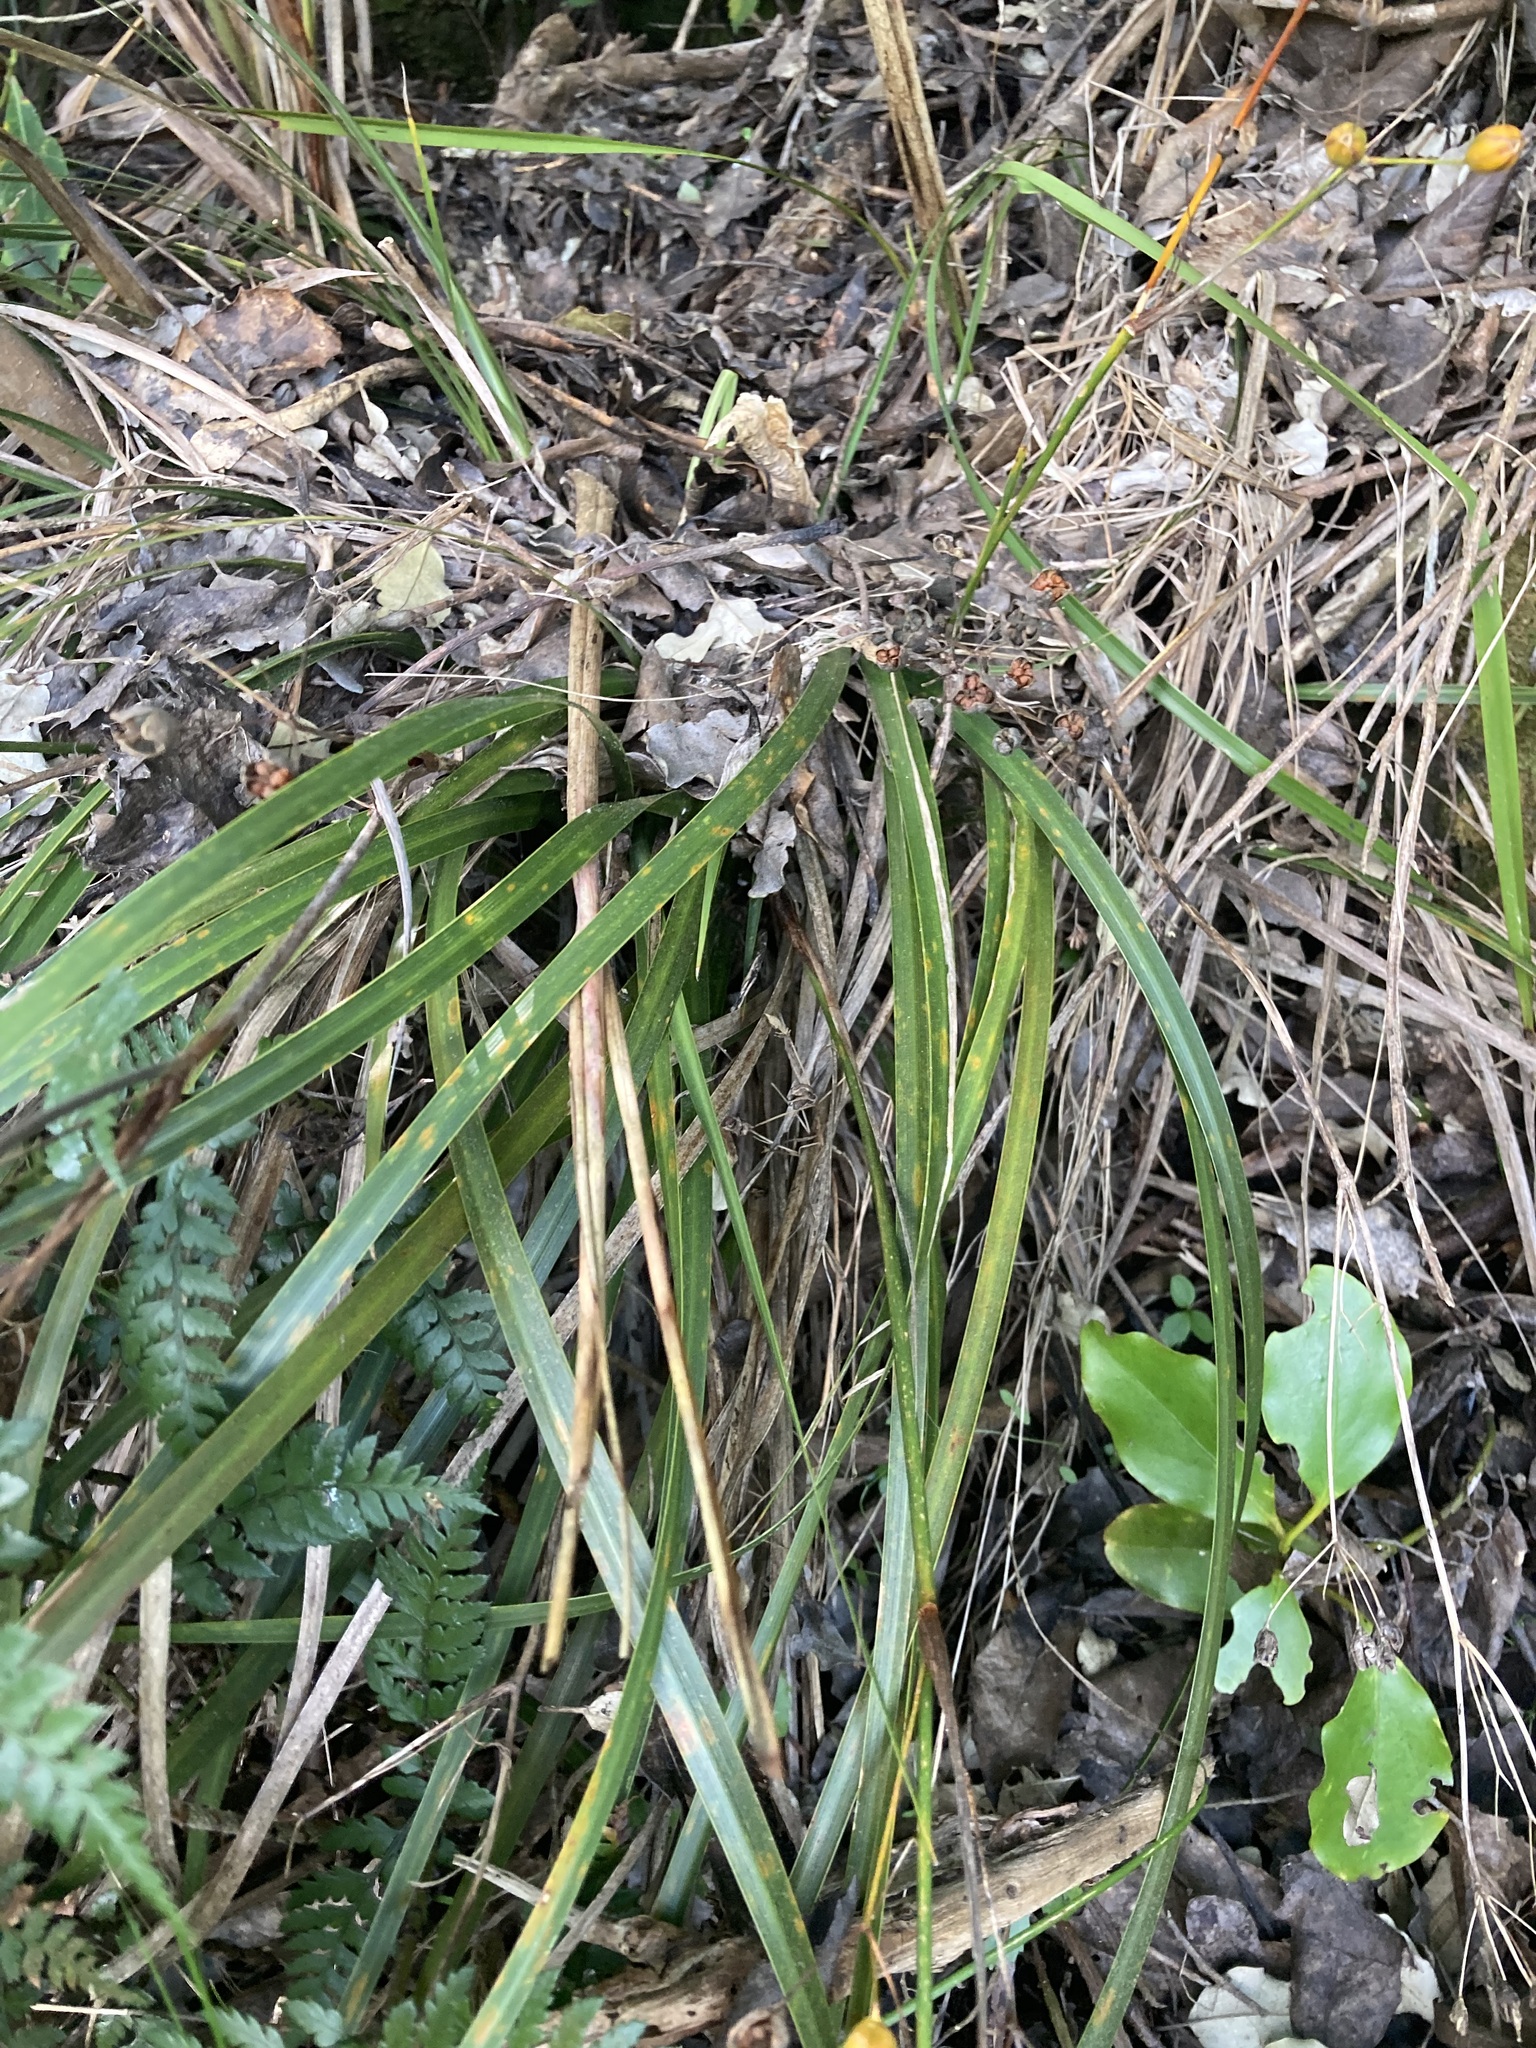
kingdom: Plantae
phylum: Tracheophyta
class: Liliopsida
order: Asparagales
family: Iridaceae
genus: Libertia
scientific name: Libertia ixioides
